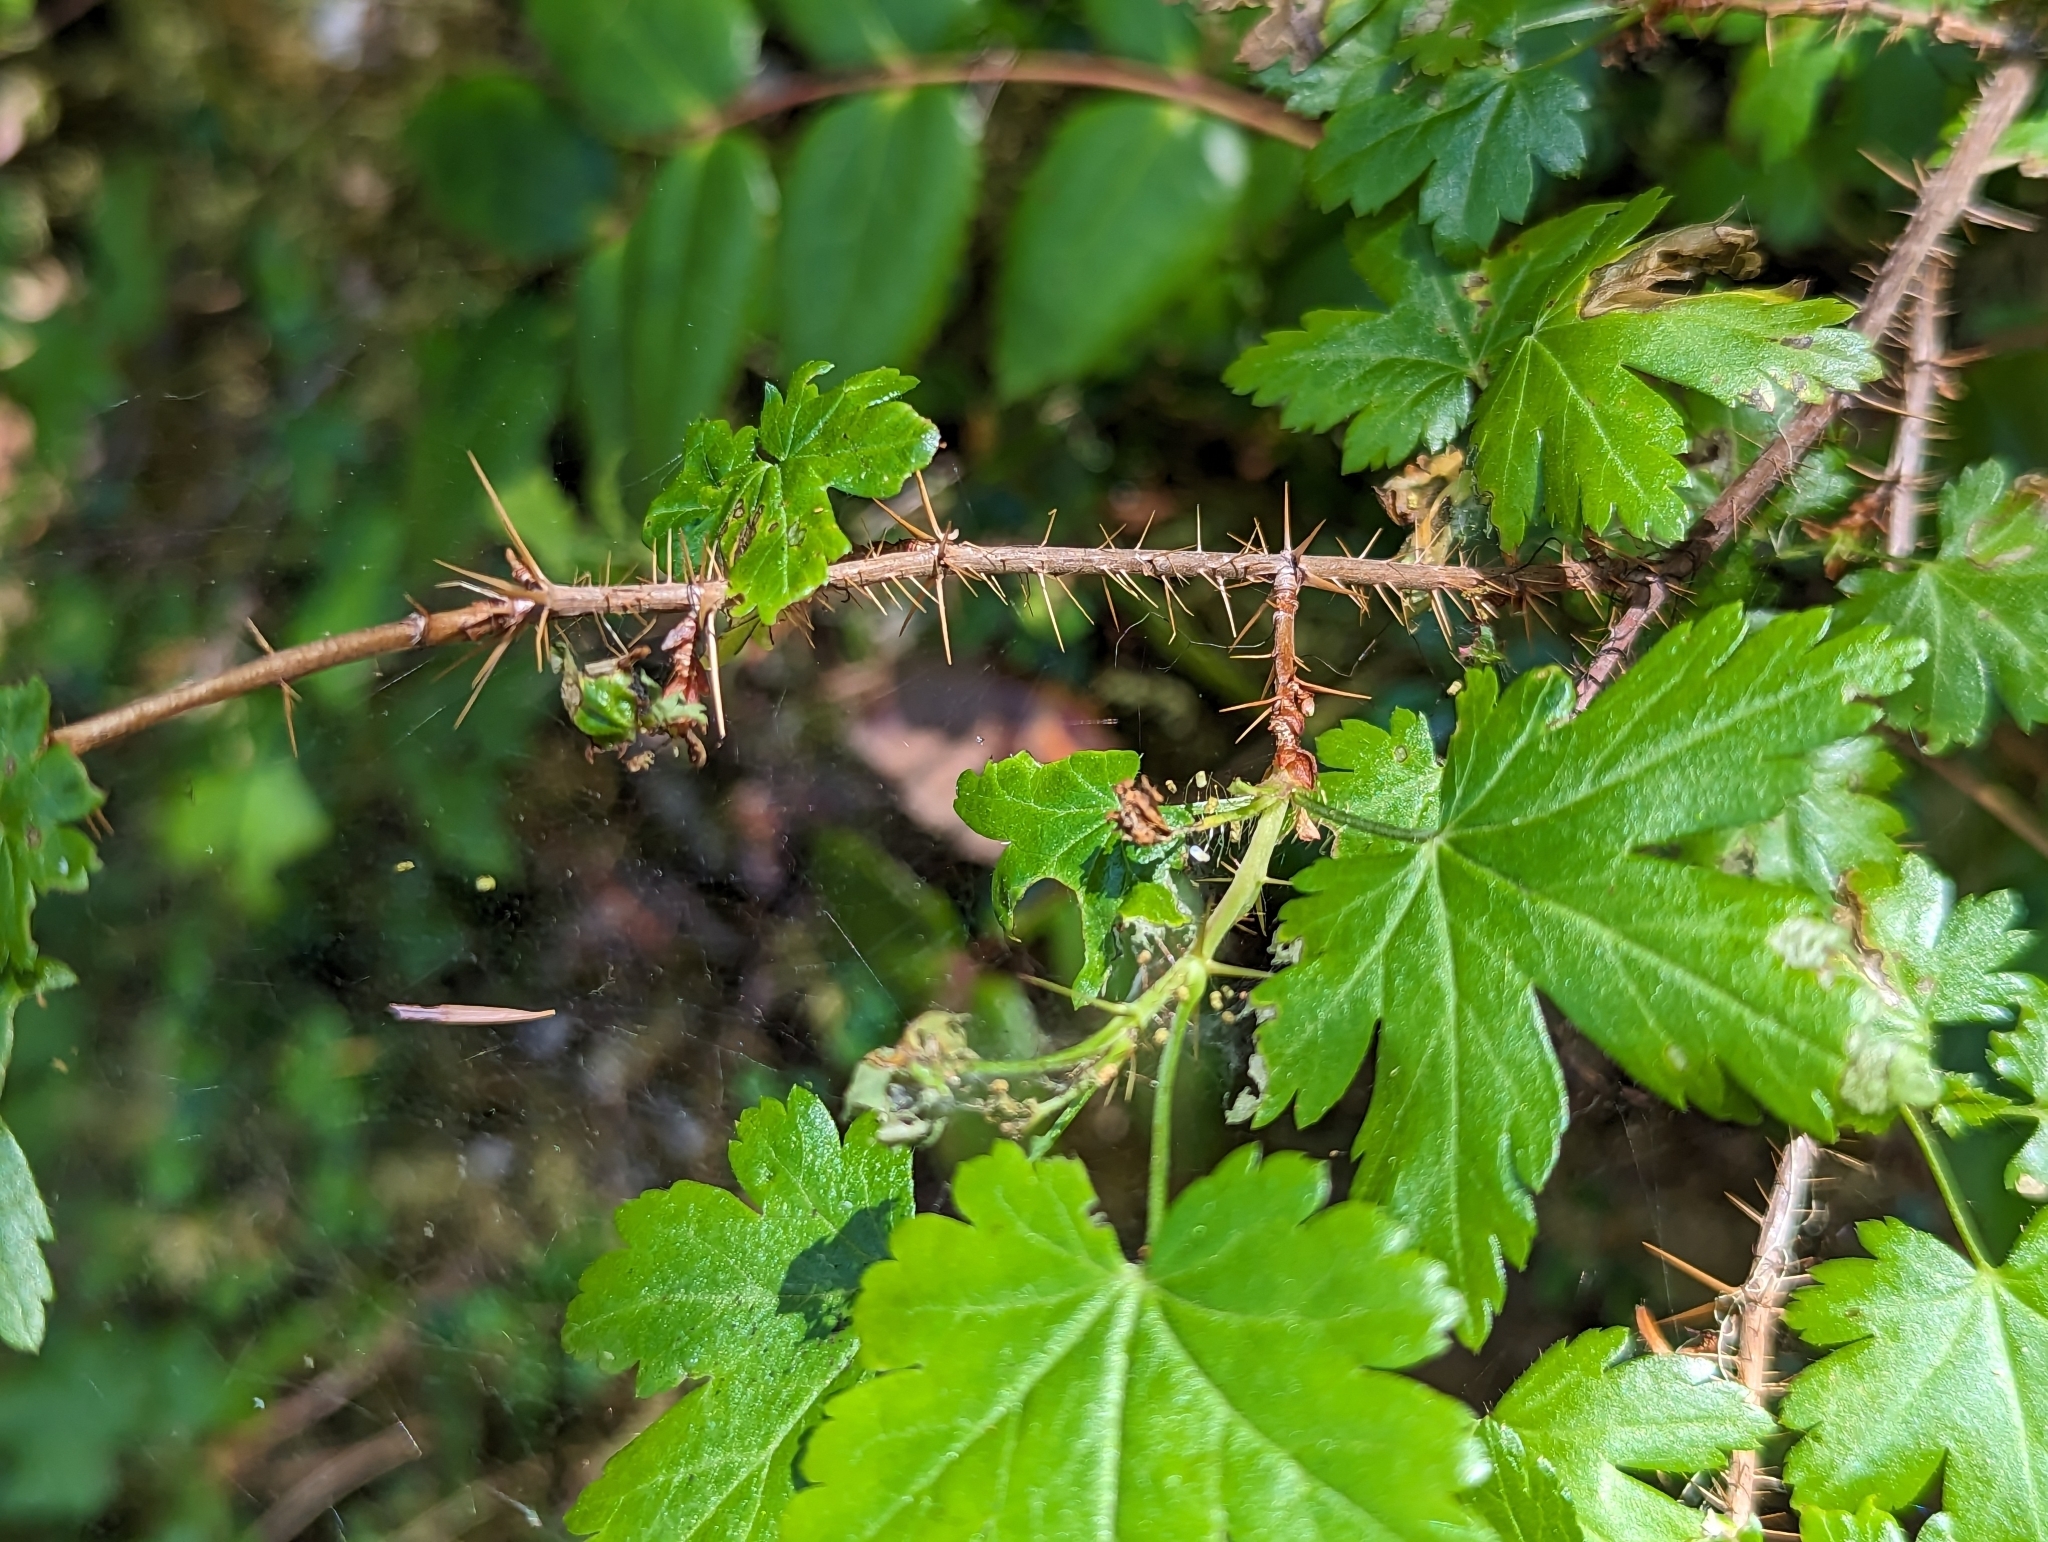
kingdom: Plantae
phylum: Tracheophyta
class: Magnoliopsida
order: Saxifragales
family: Grossulariaceae
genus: Ribes
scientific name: Ribes lacustre
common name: Black gooseberry
